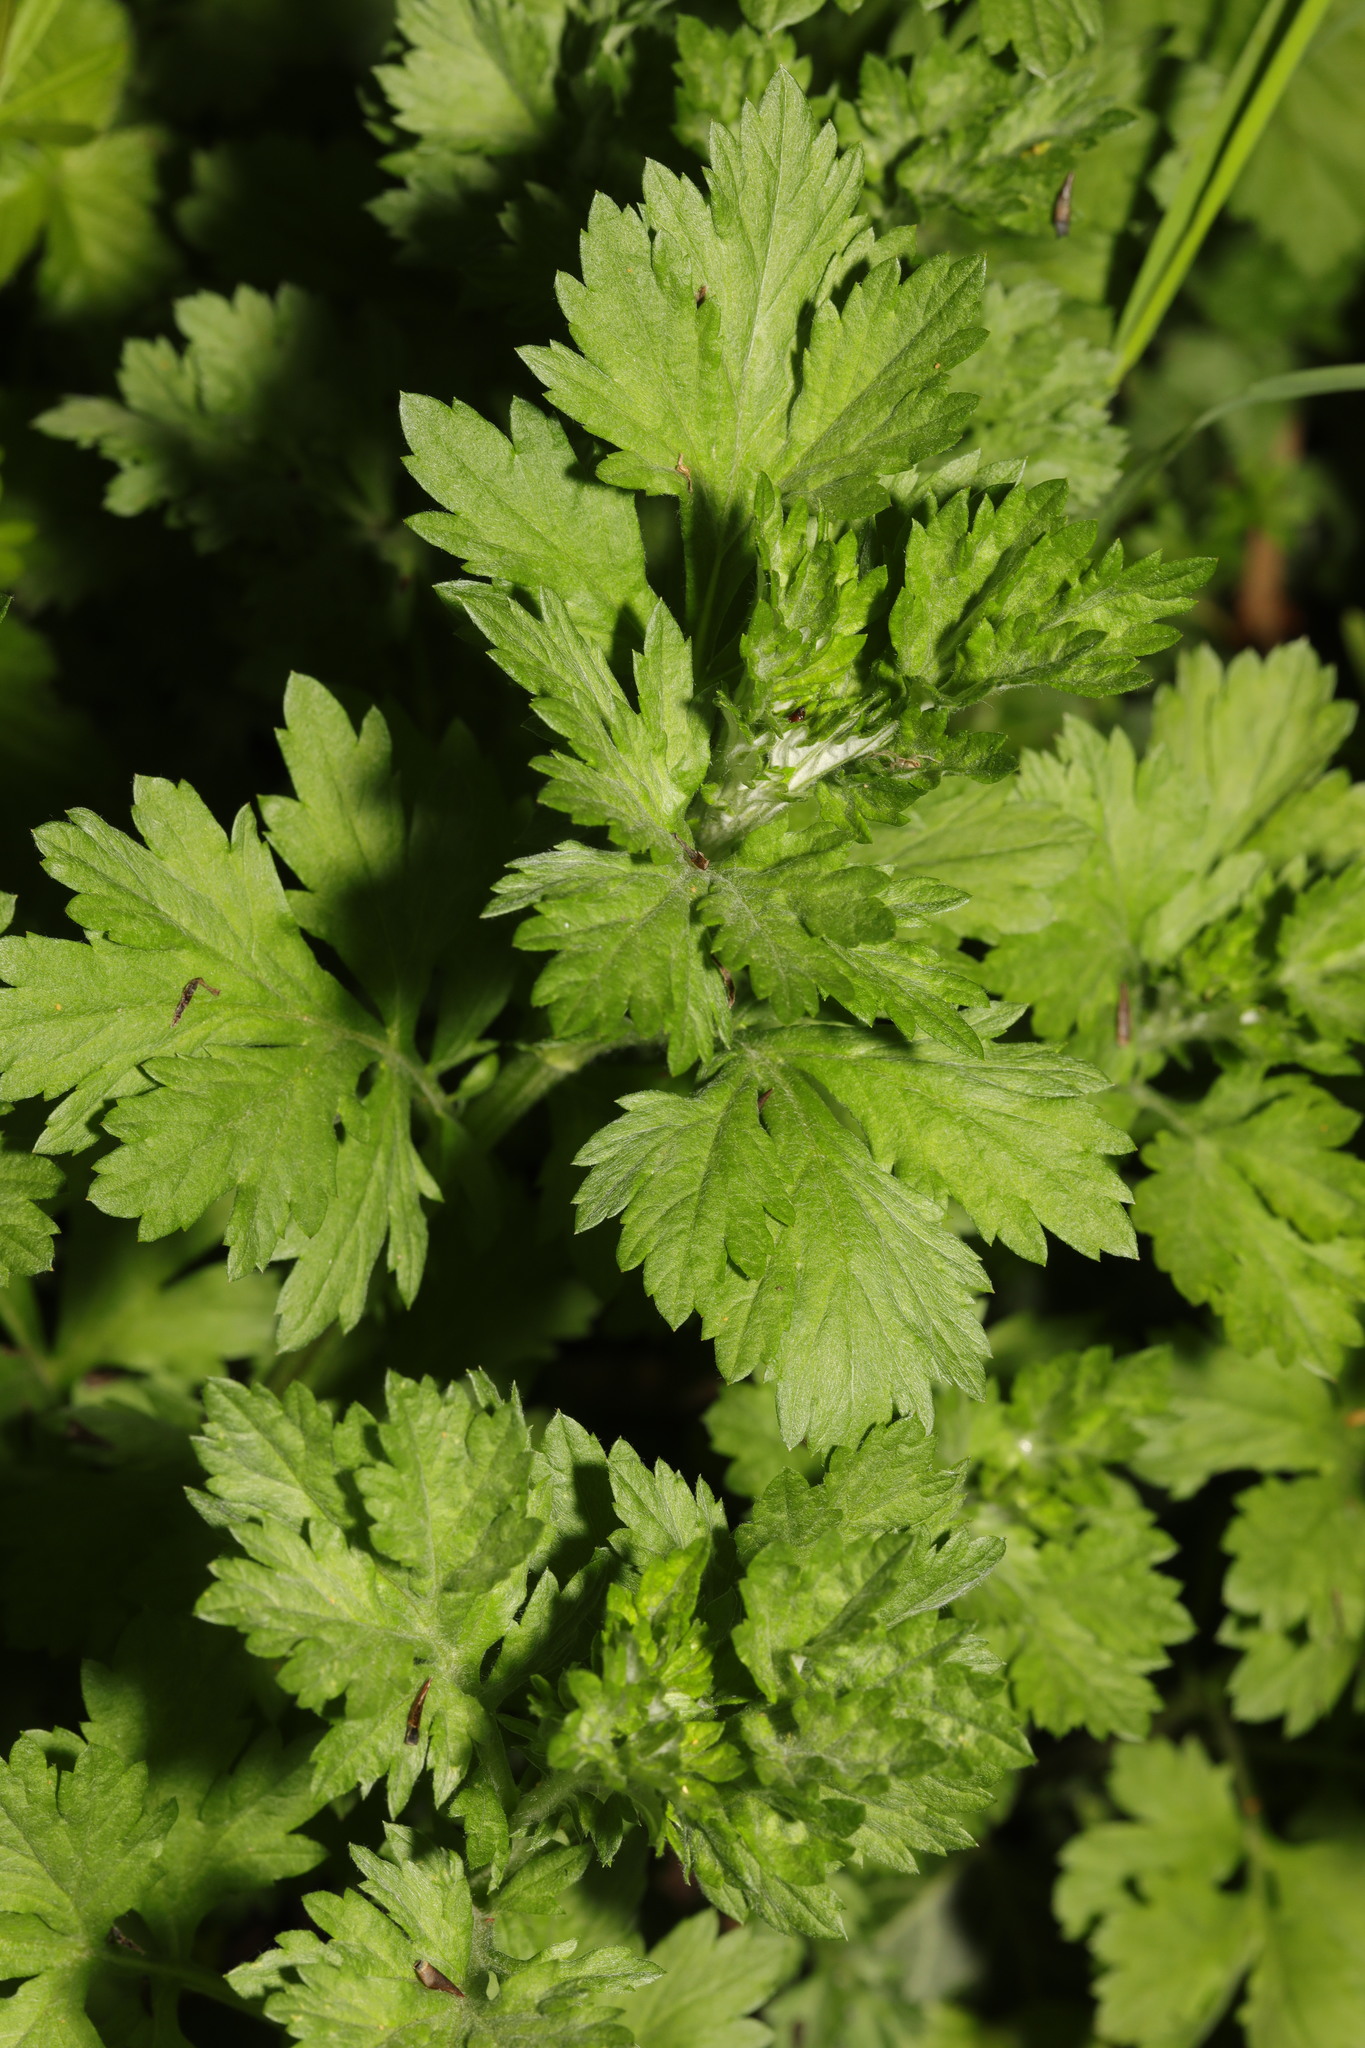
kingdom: Plantae
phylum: Tracheophyta
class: Magnoliopsida
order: Asterales
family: Asteraceae
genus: Artemisia
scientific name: Artemisia vulgaris
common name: Mugwort
